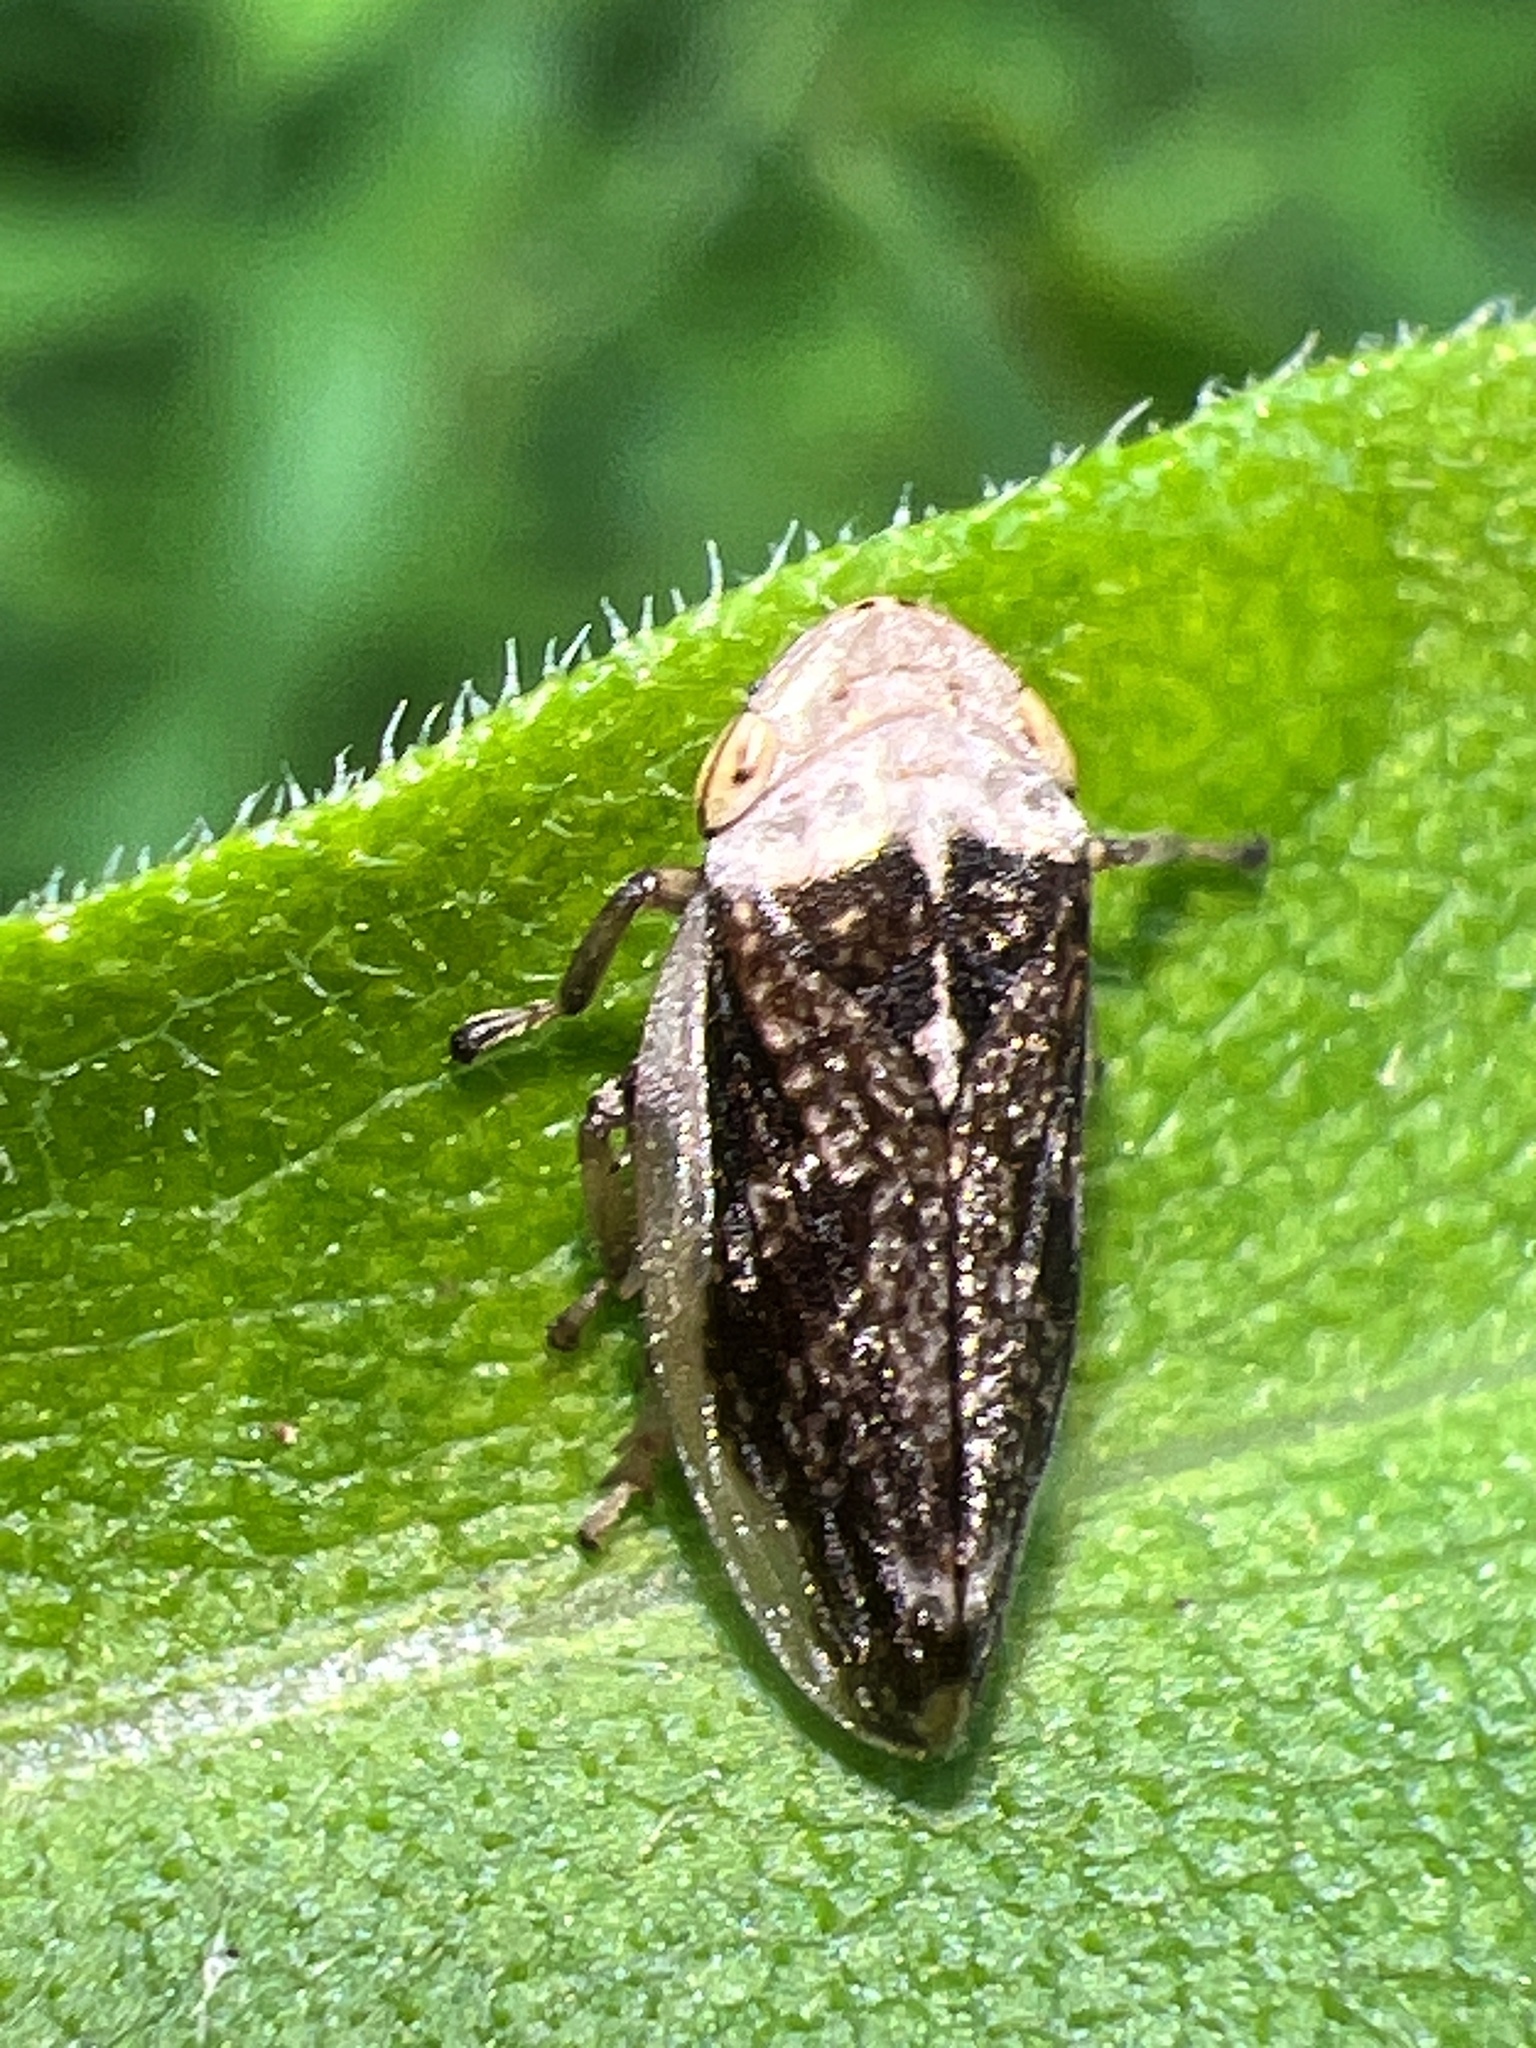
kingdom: Animalia
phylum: Arthropoda
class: Insecta
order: Hemiptera
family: Aphrophoridae
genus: Philaenus
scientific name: Philaenus spumarius
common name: Meadow spittlebug
